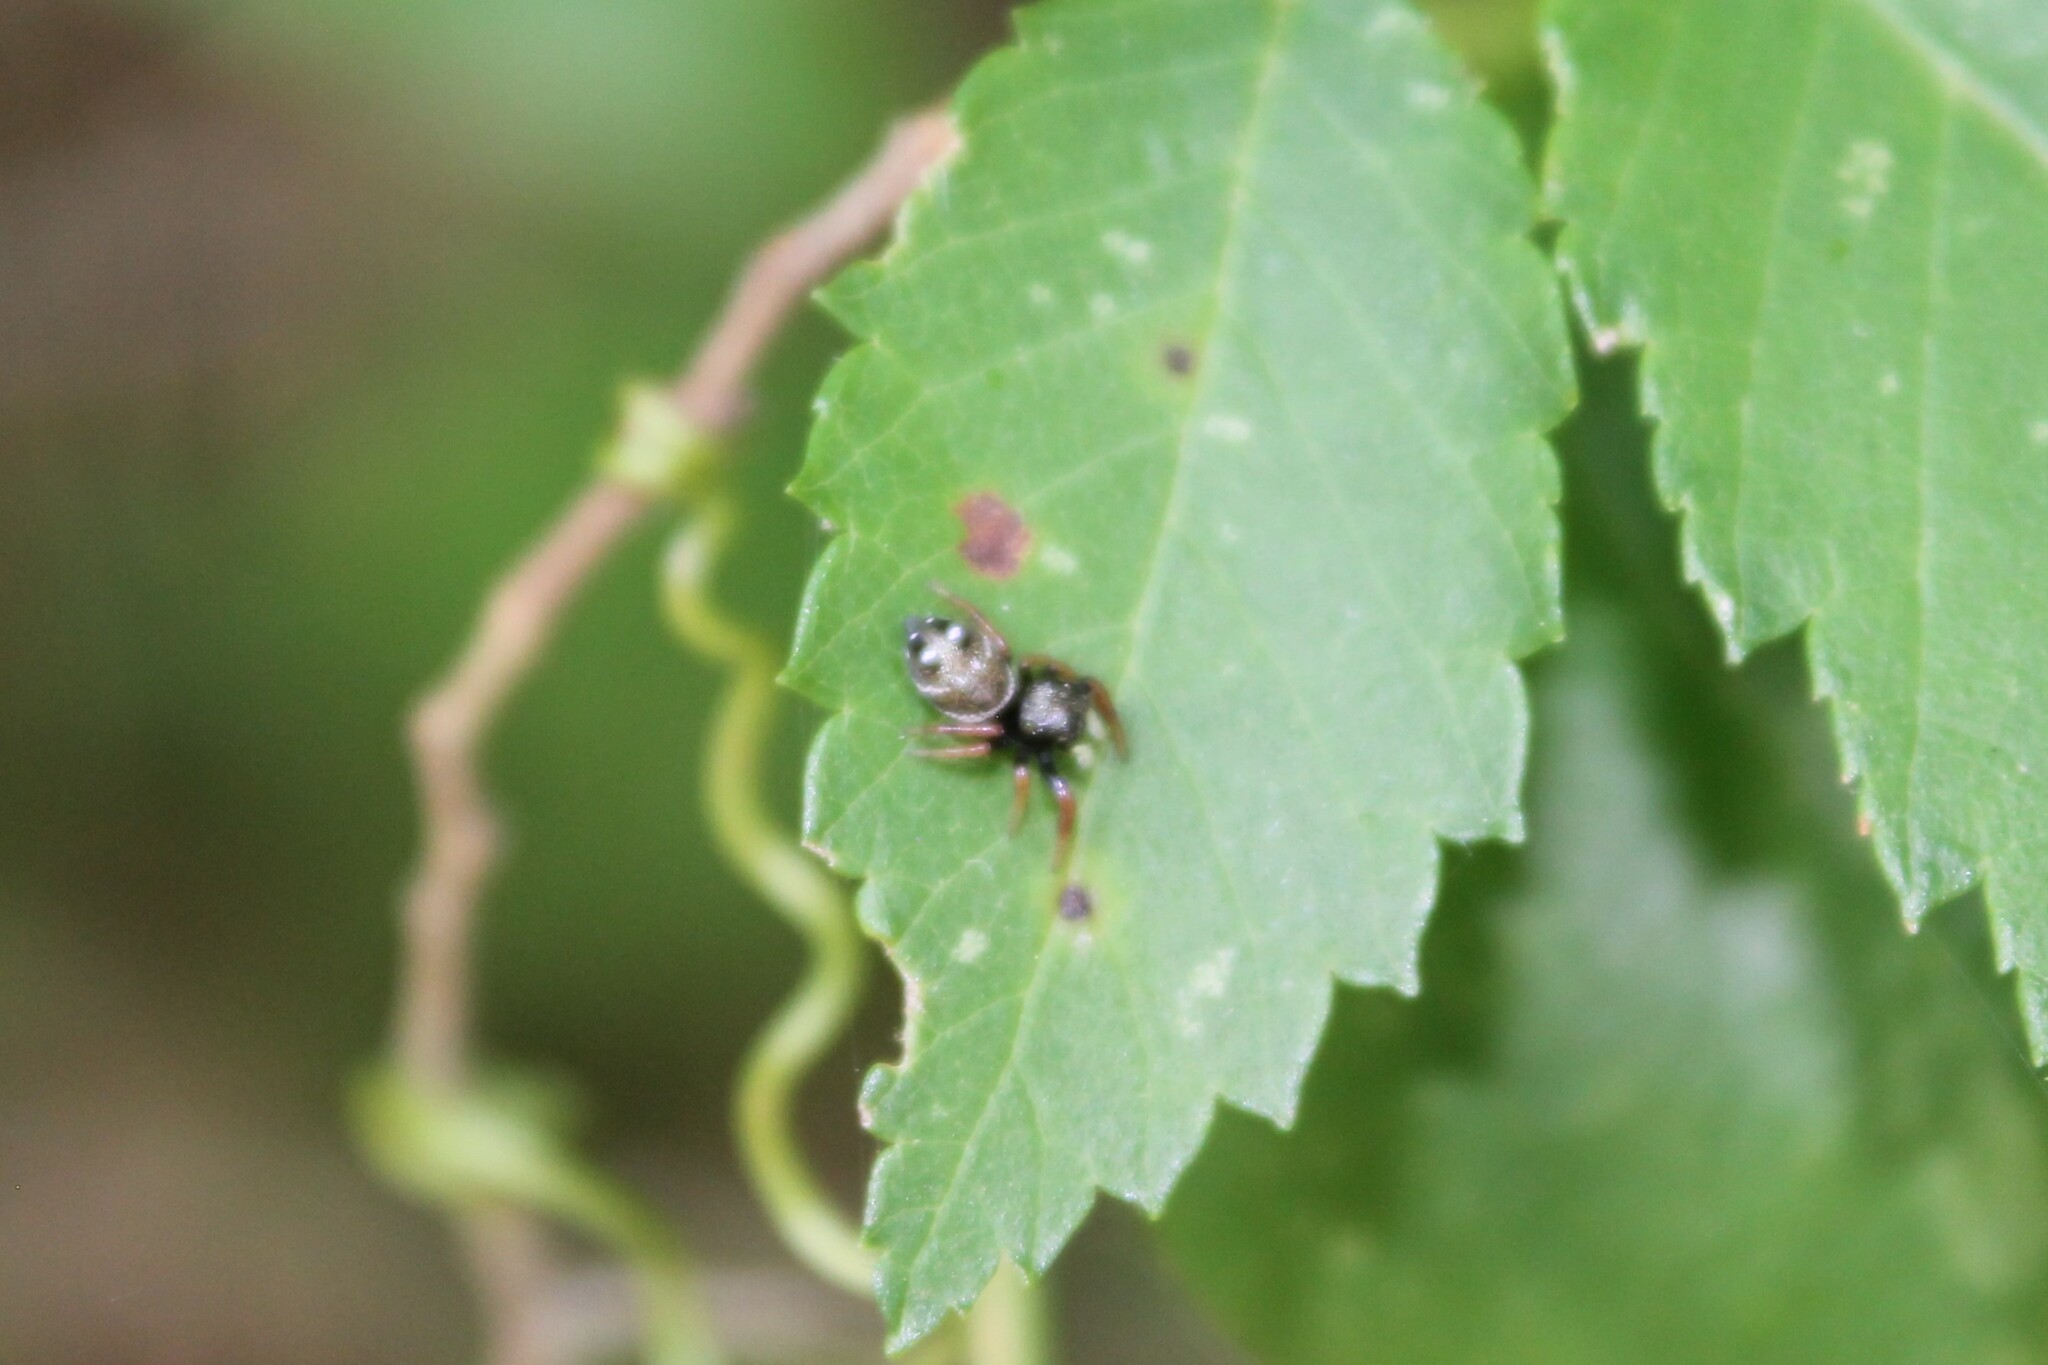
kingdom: Animalia
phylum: Arthropoda
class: Arachnida
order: Araneae
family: Salticidae
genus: Phidippus
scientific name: Phidippus whitmani
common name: Whitman's jumping spider
